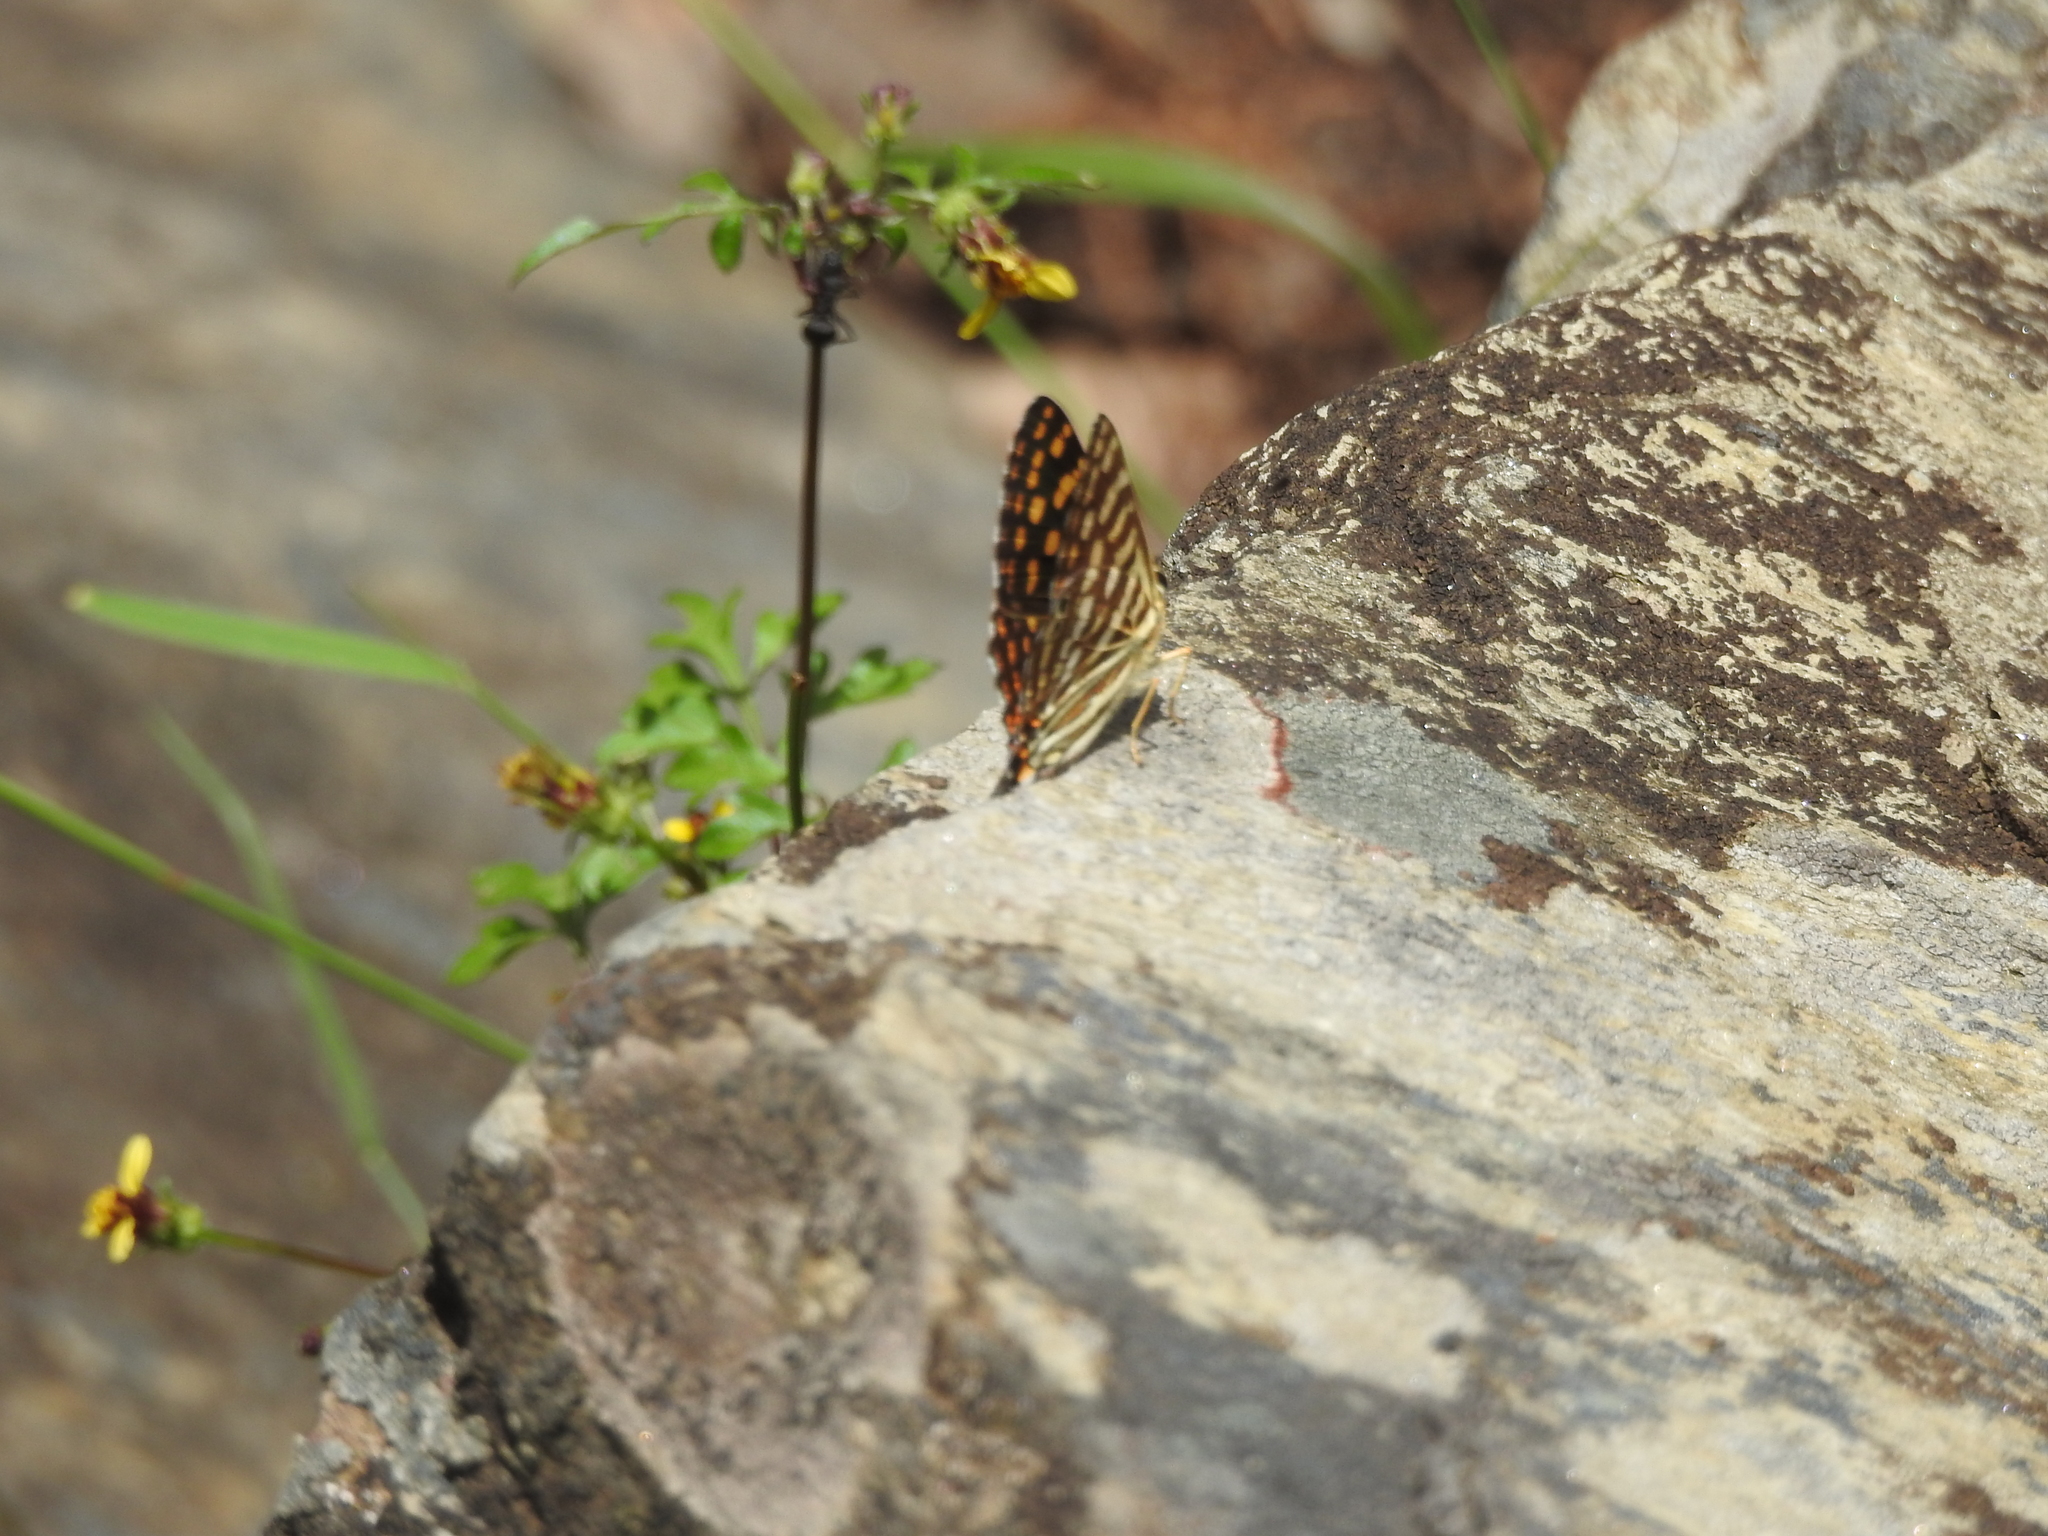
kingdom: Animalia
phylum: Arthropoda
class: Insecta
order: Lepidoptera
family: Lycaenidae
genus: Dodona
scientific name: Dodona durga
